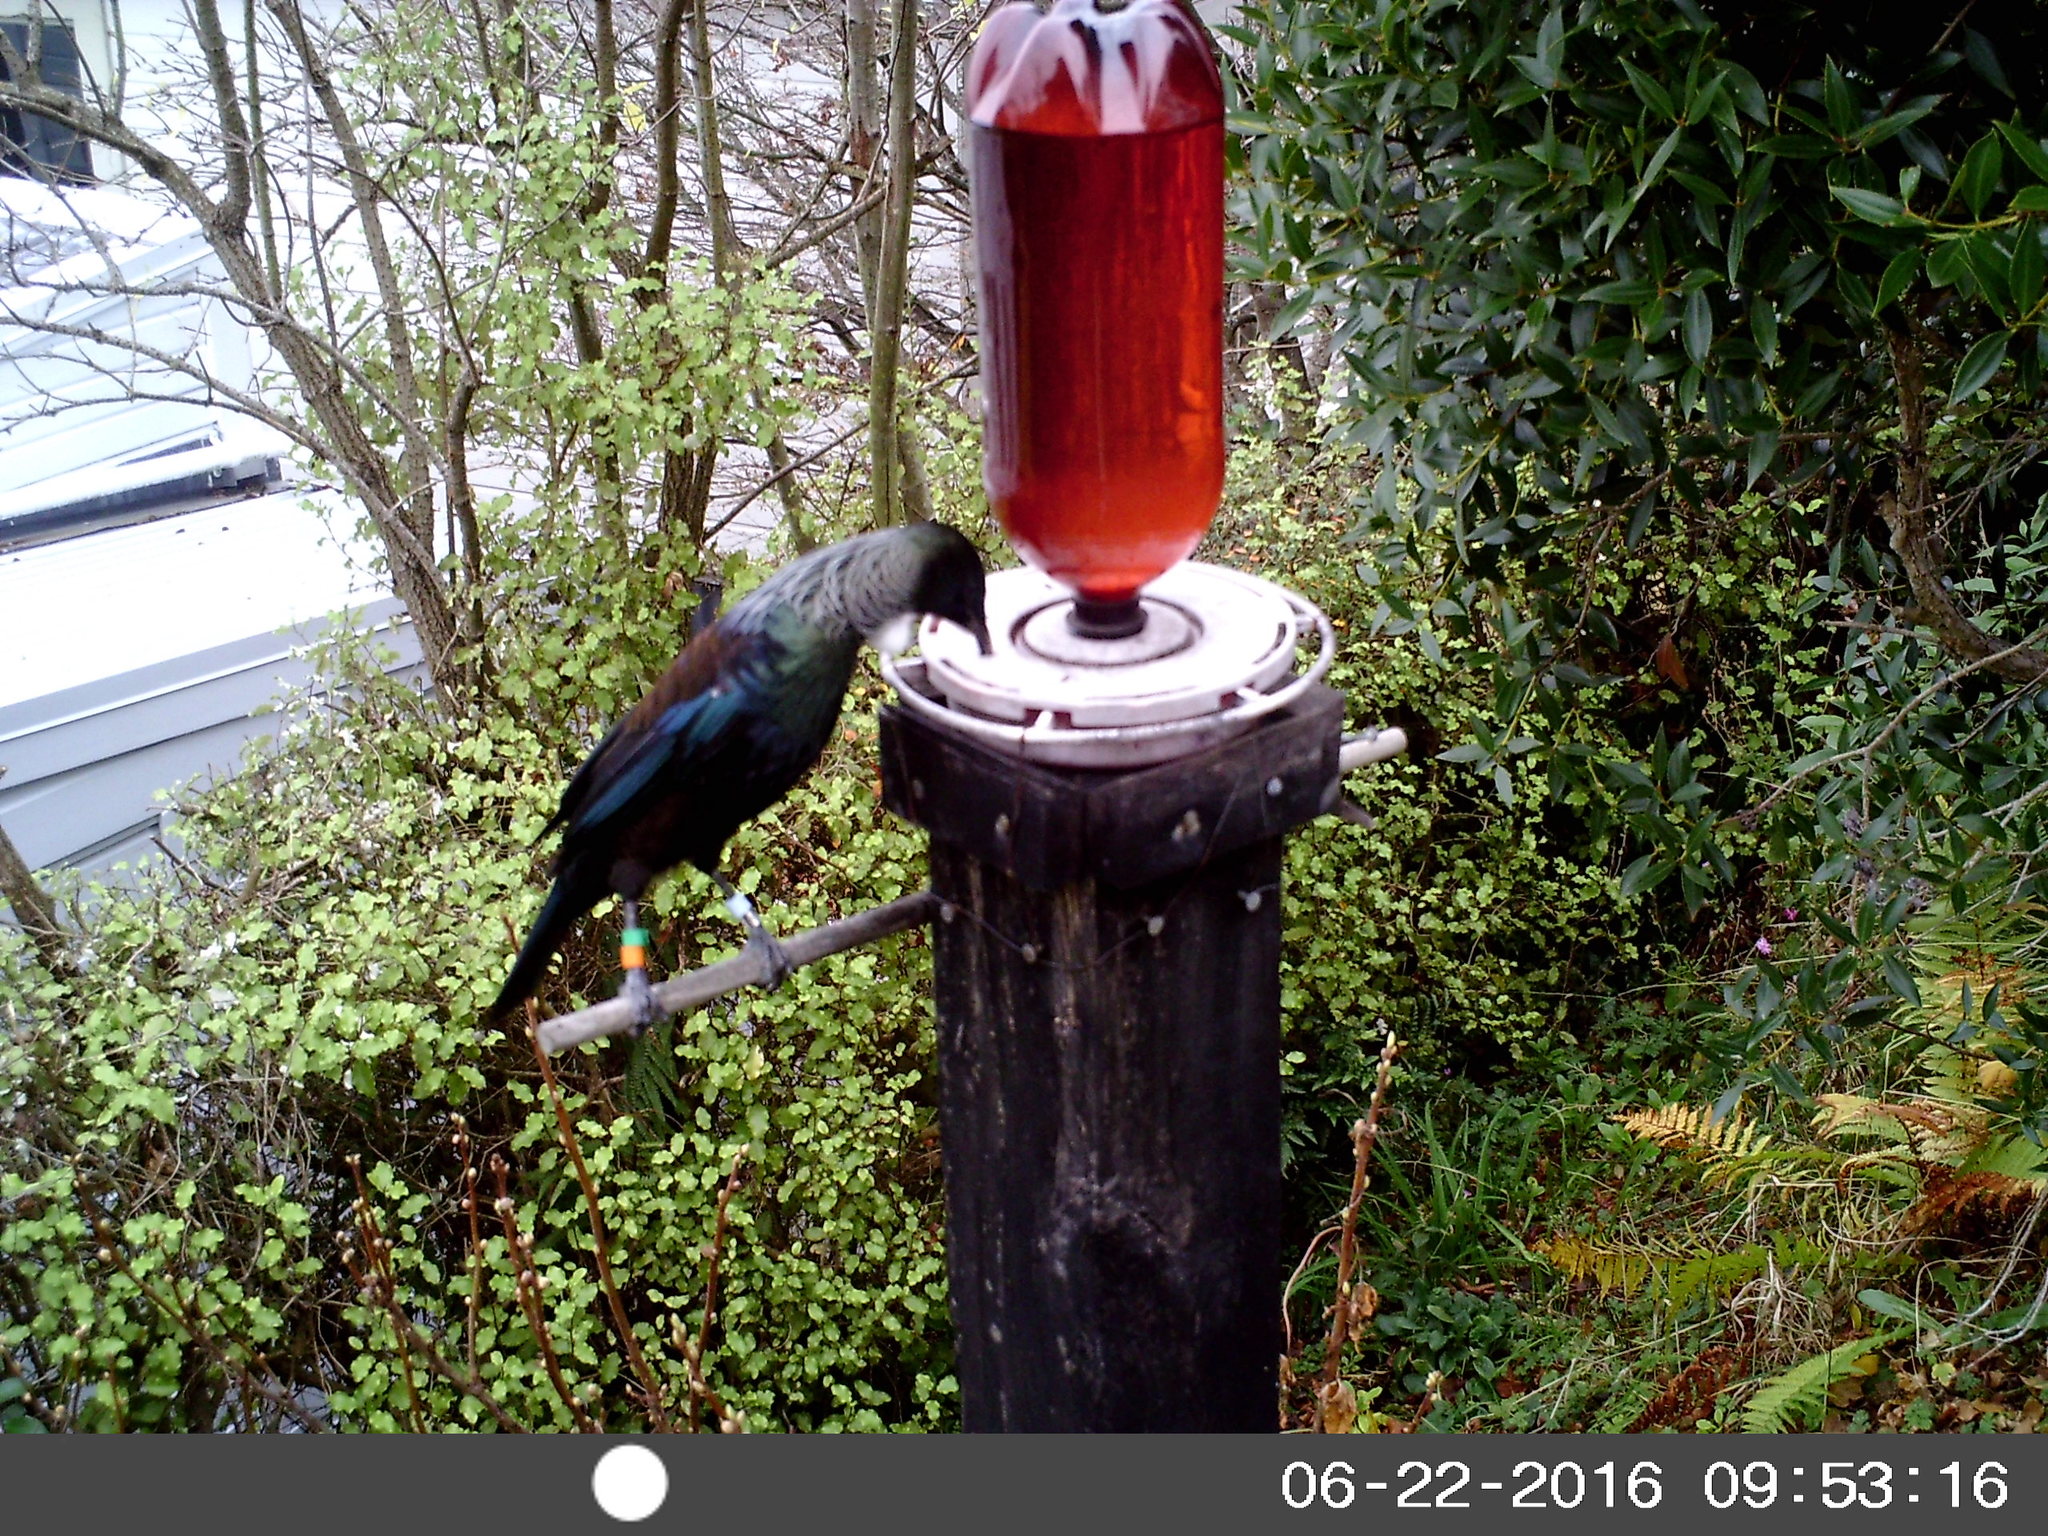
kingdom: Animalia
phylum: Chordata
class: Aves
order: Passeriformes
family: Meliphagidae
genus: Prosthemadera
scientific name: Prosthemadera novaeseelandiae
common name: Tui
